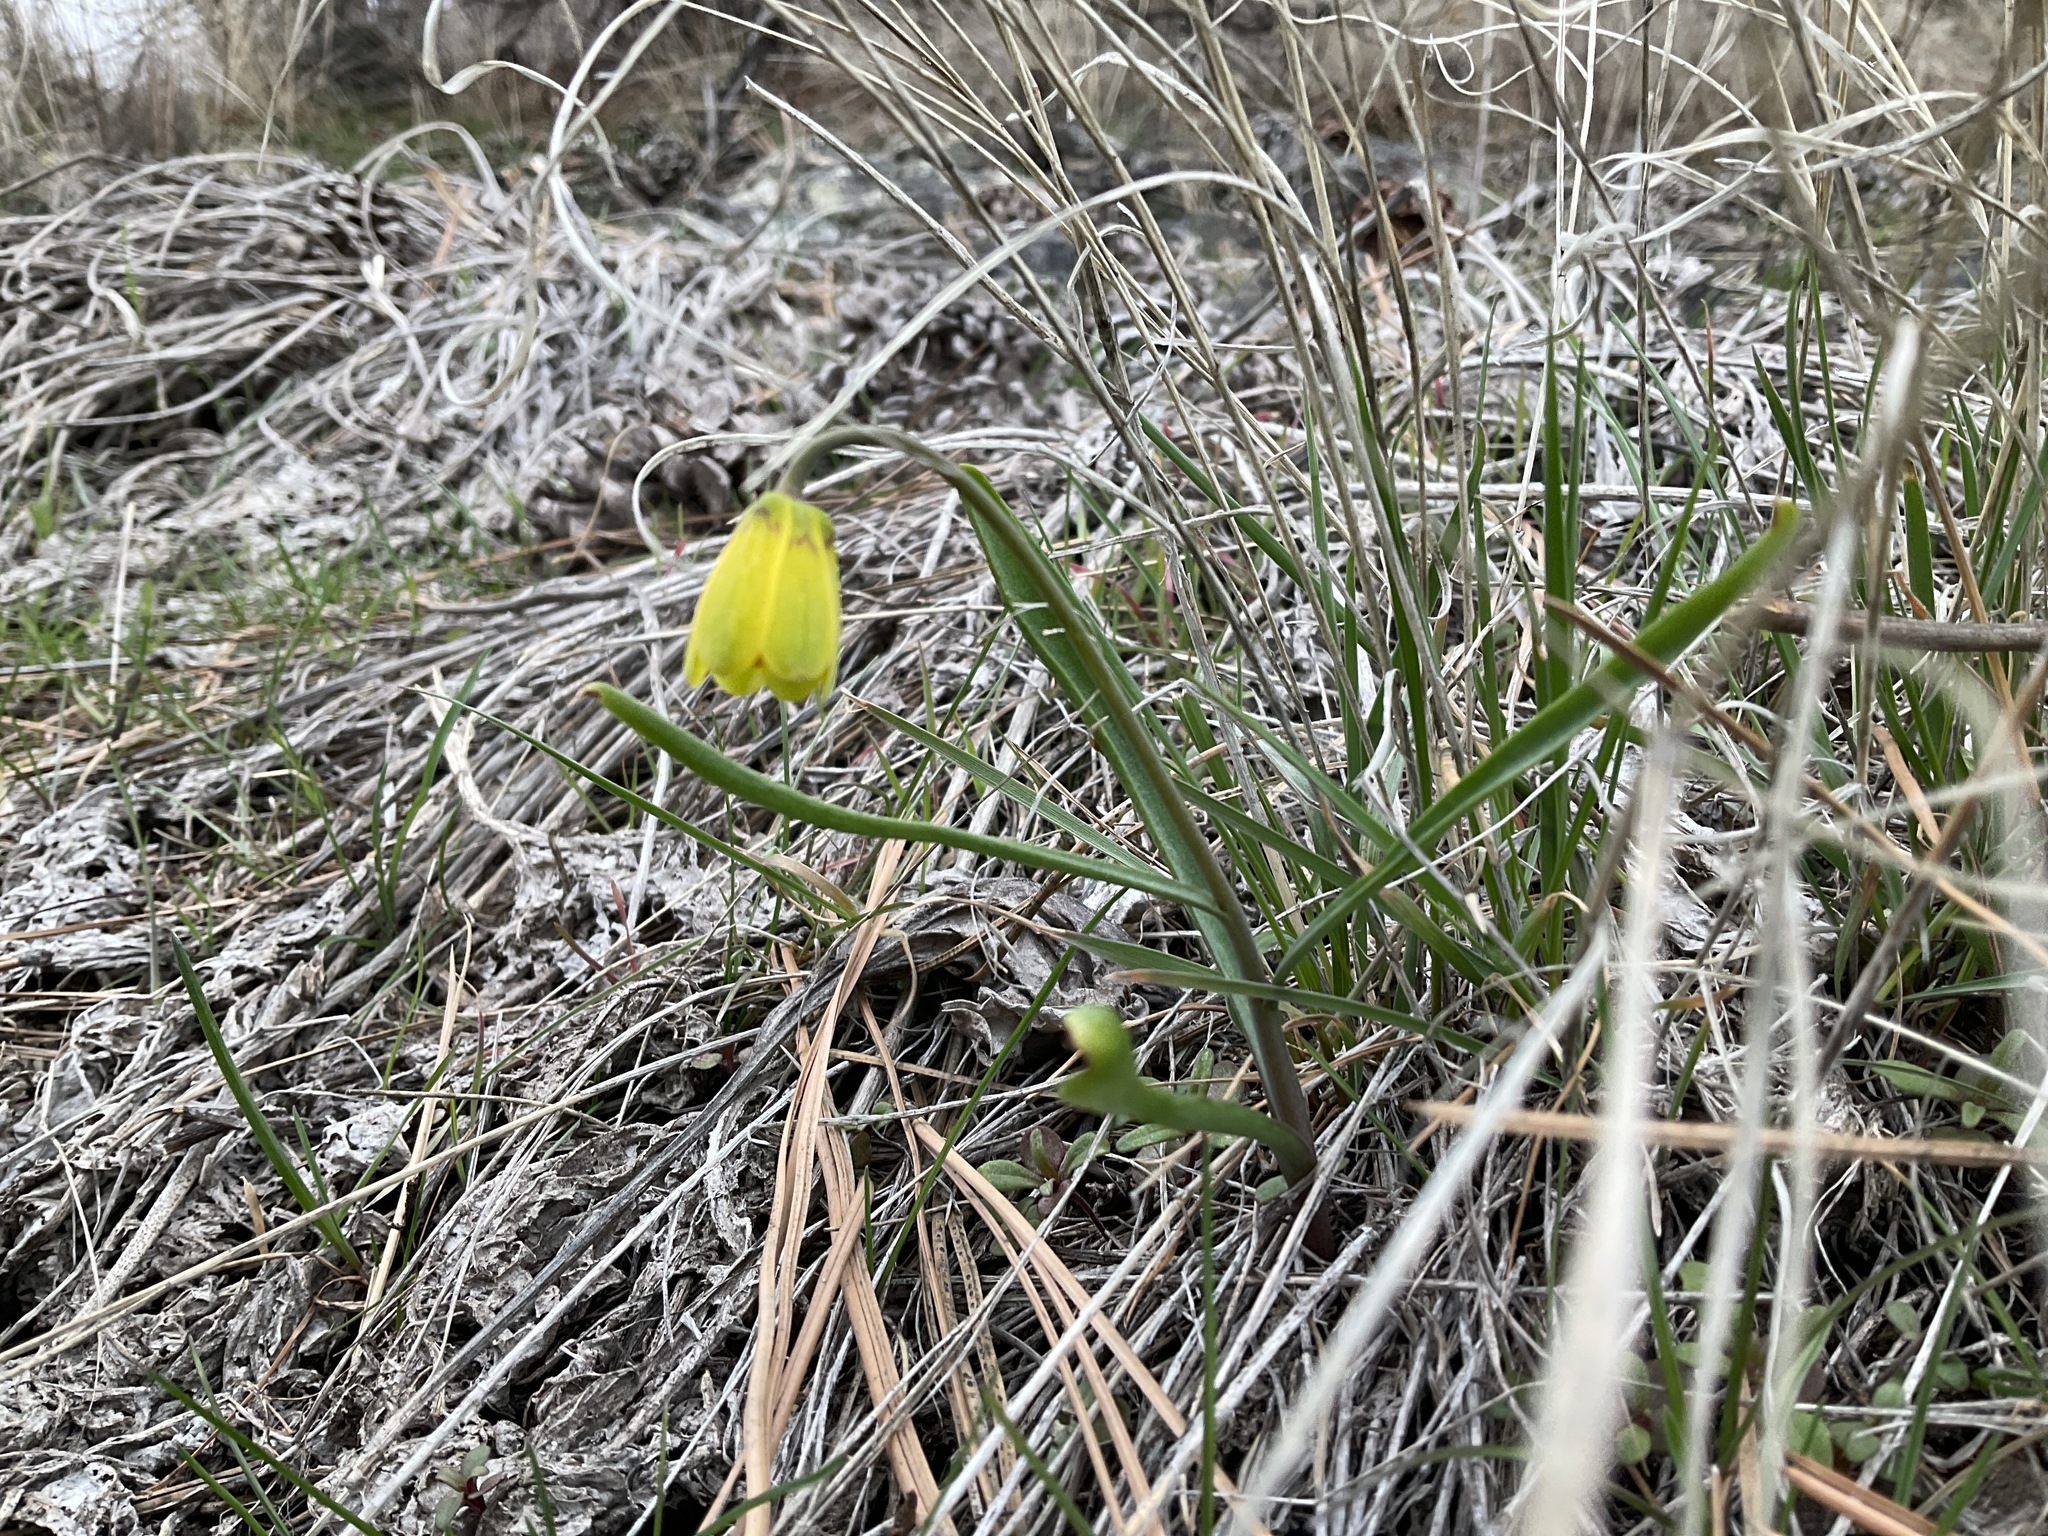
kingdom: Plantae
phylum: Tracheophyta
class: Liliopsida
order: Liliales
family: Liliaceae
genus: Fritillaria
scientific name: Fritillaria pudica
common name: Yellow fritillary
